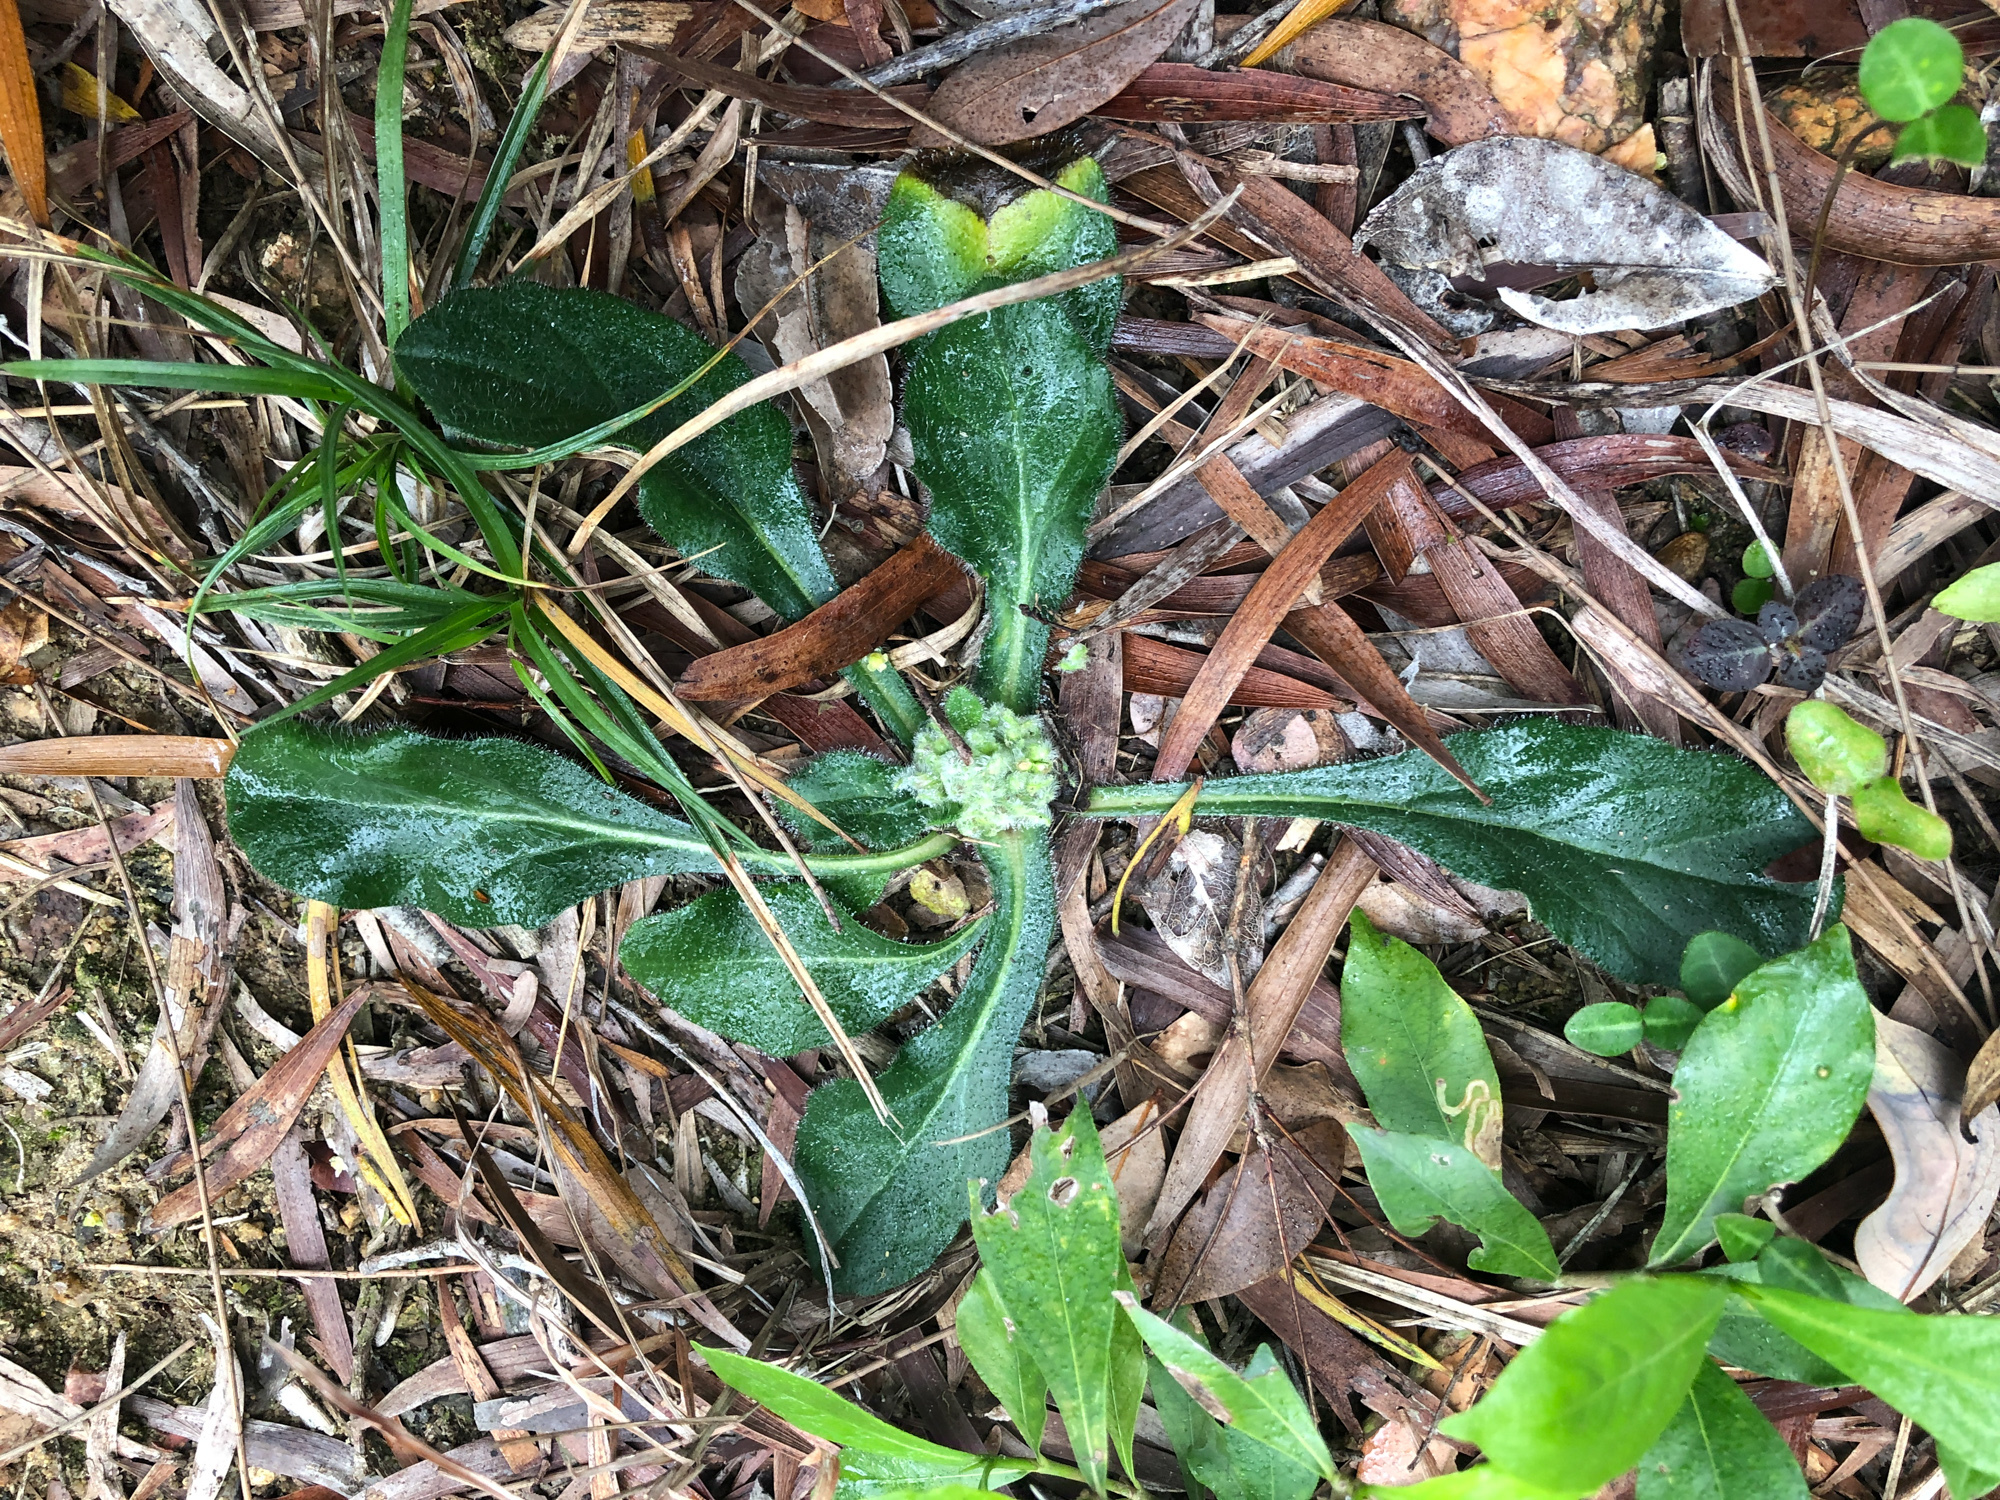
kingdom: Plantae
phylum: Tracheophyta
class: Magnoliopsida
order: Asterales
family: Asteraceae
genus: Metamyriactis
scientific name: Metamyriactis panduratus
